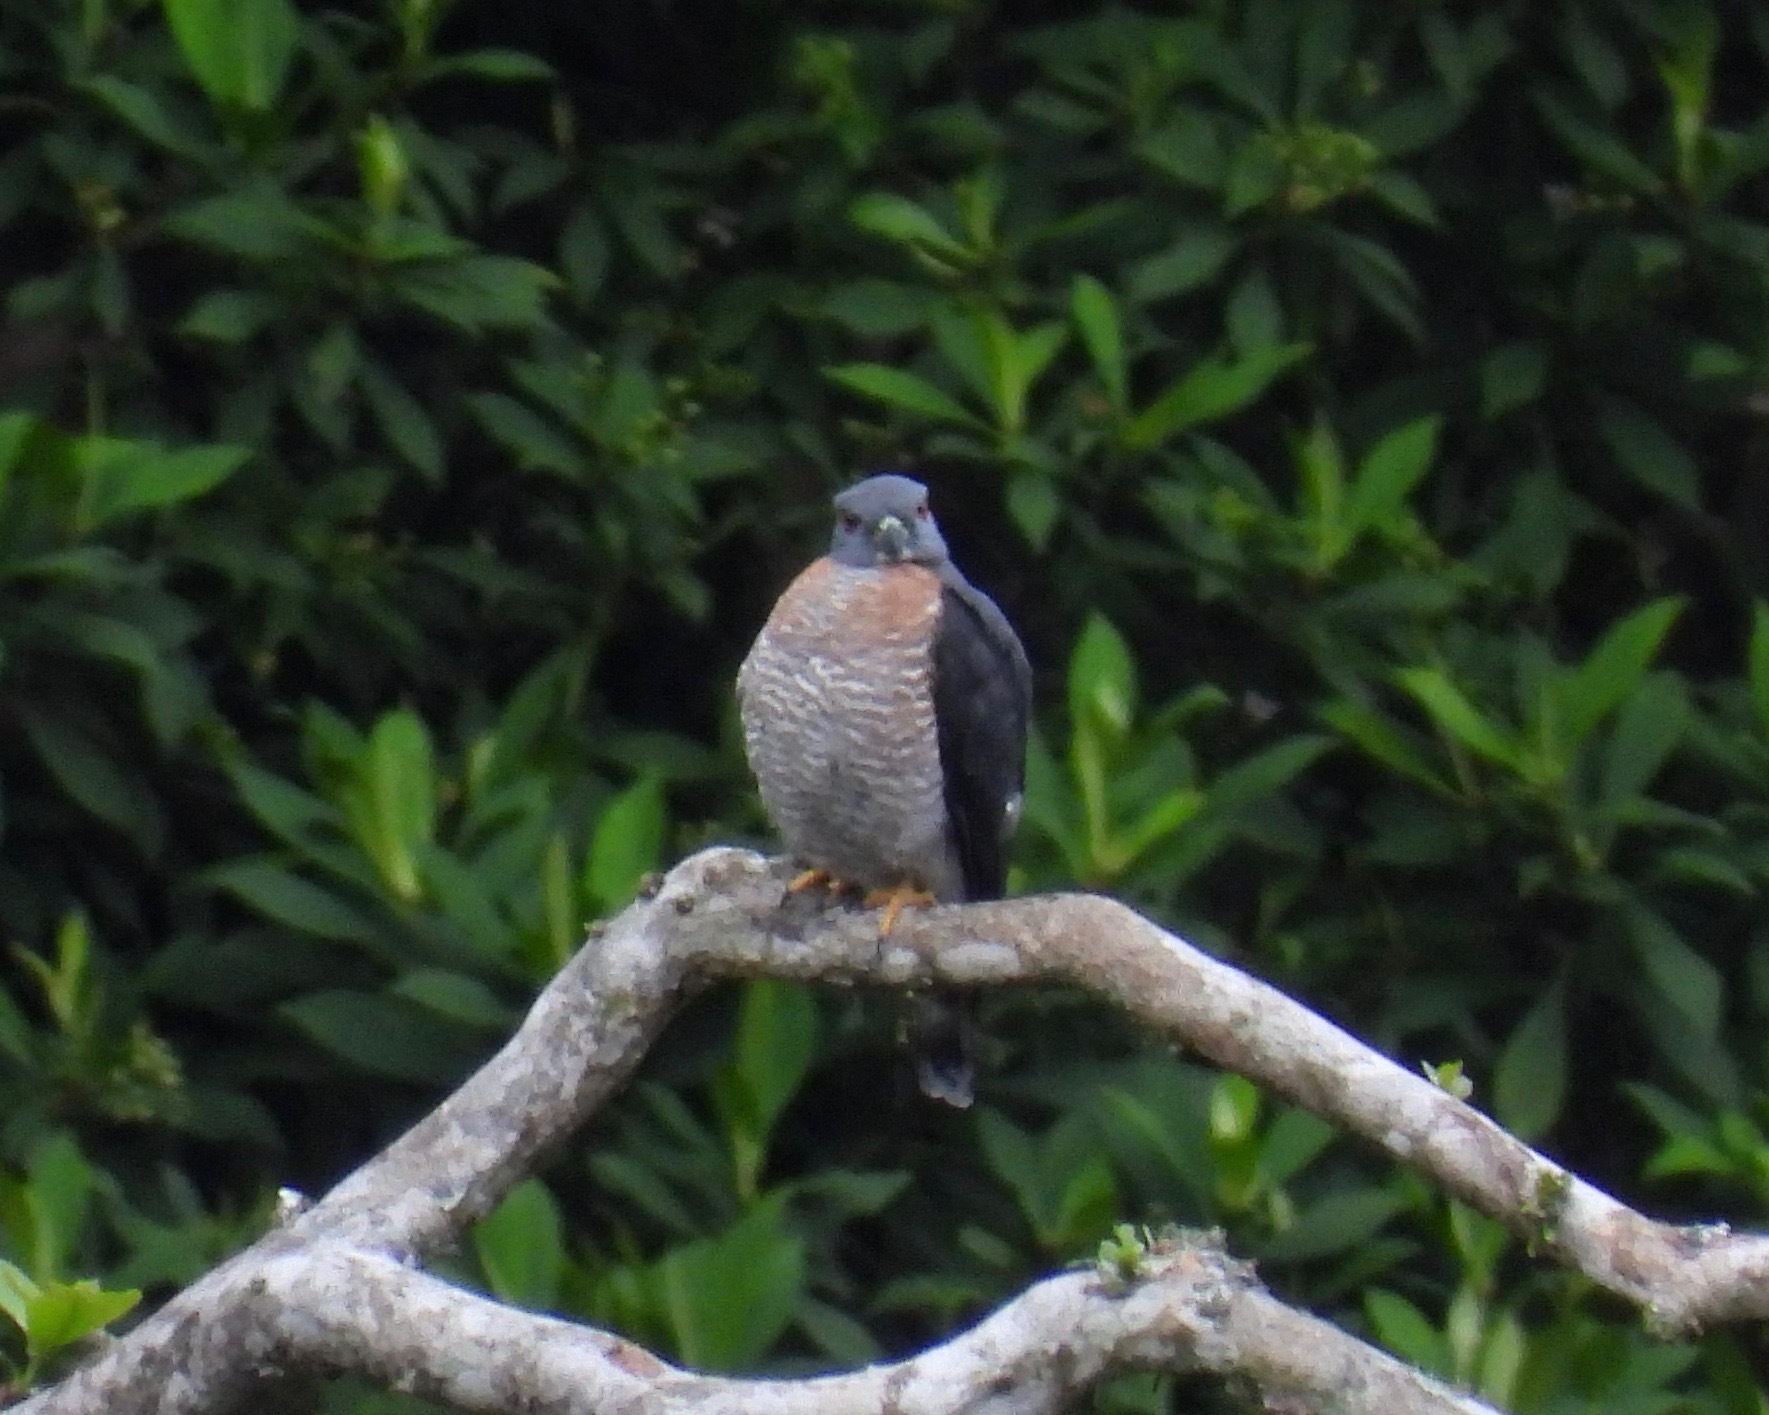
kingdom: Animalia
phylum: Chordata
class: Aves
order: Accipitriformes
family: Accipitridae
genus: Harpagus
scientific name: Harpagus bidentatus
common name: Double-toothed kite
